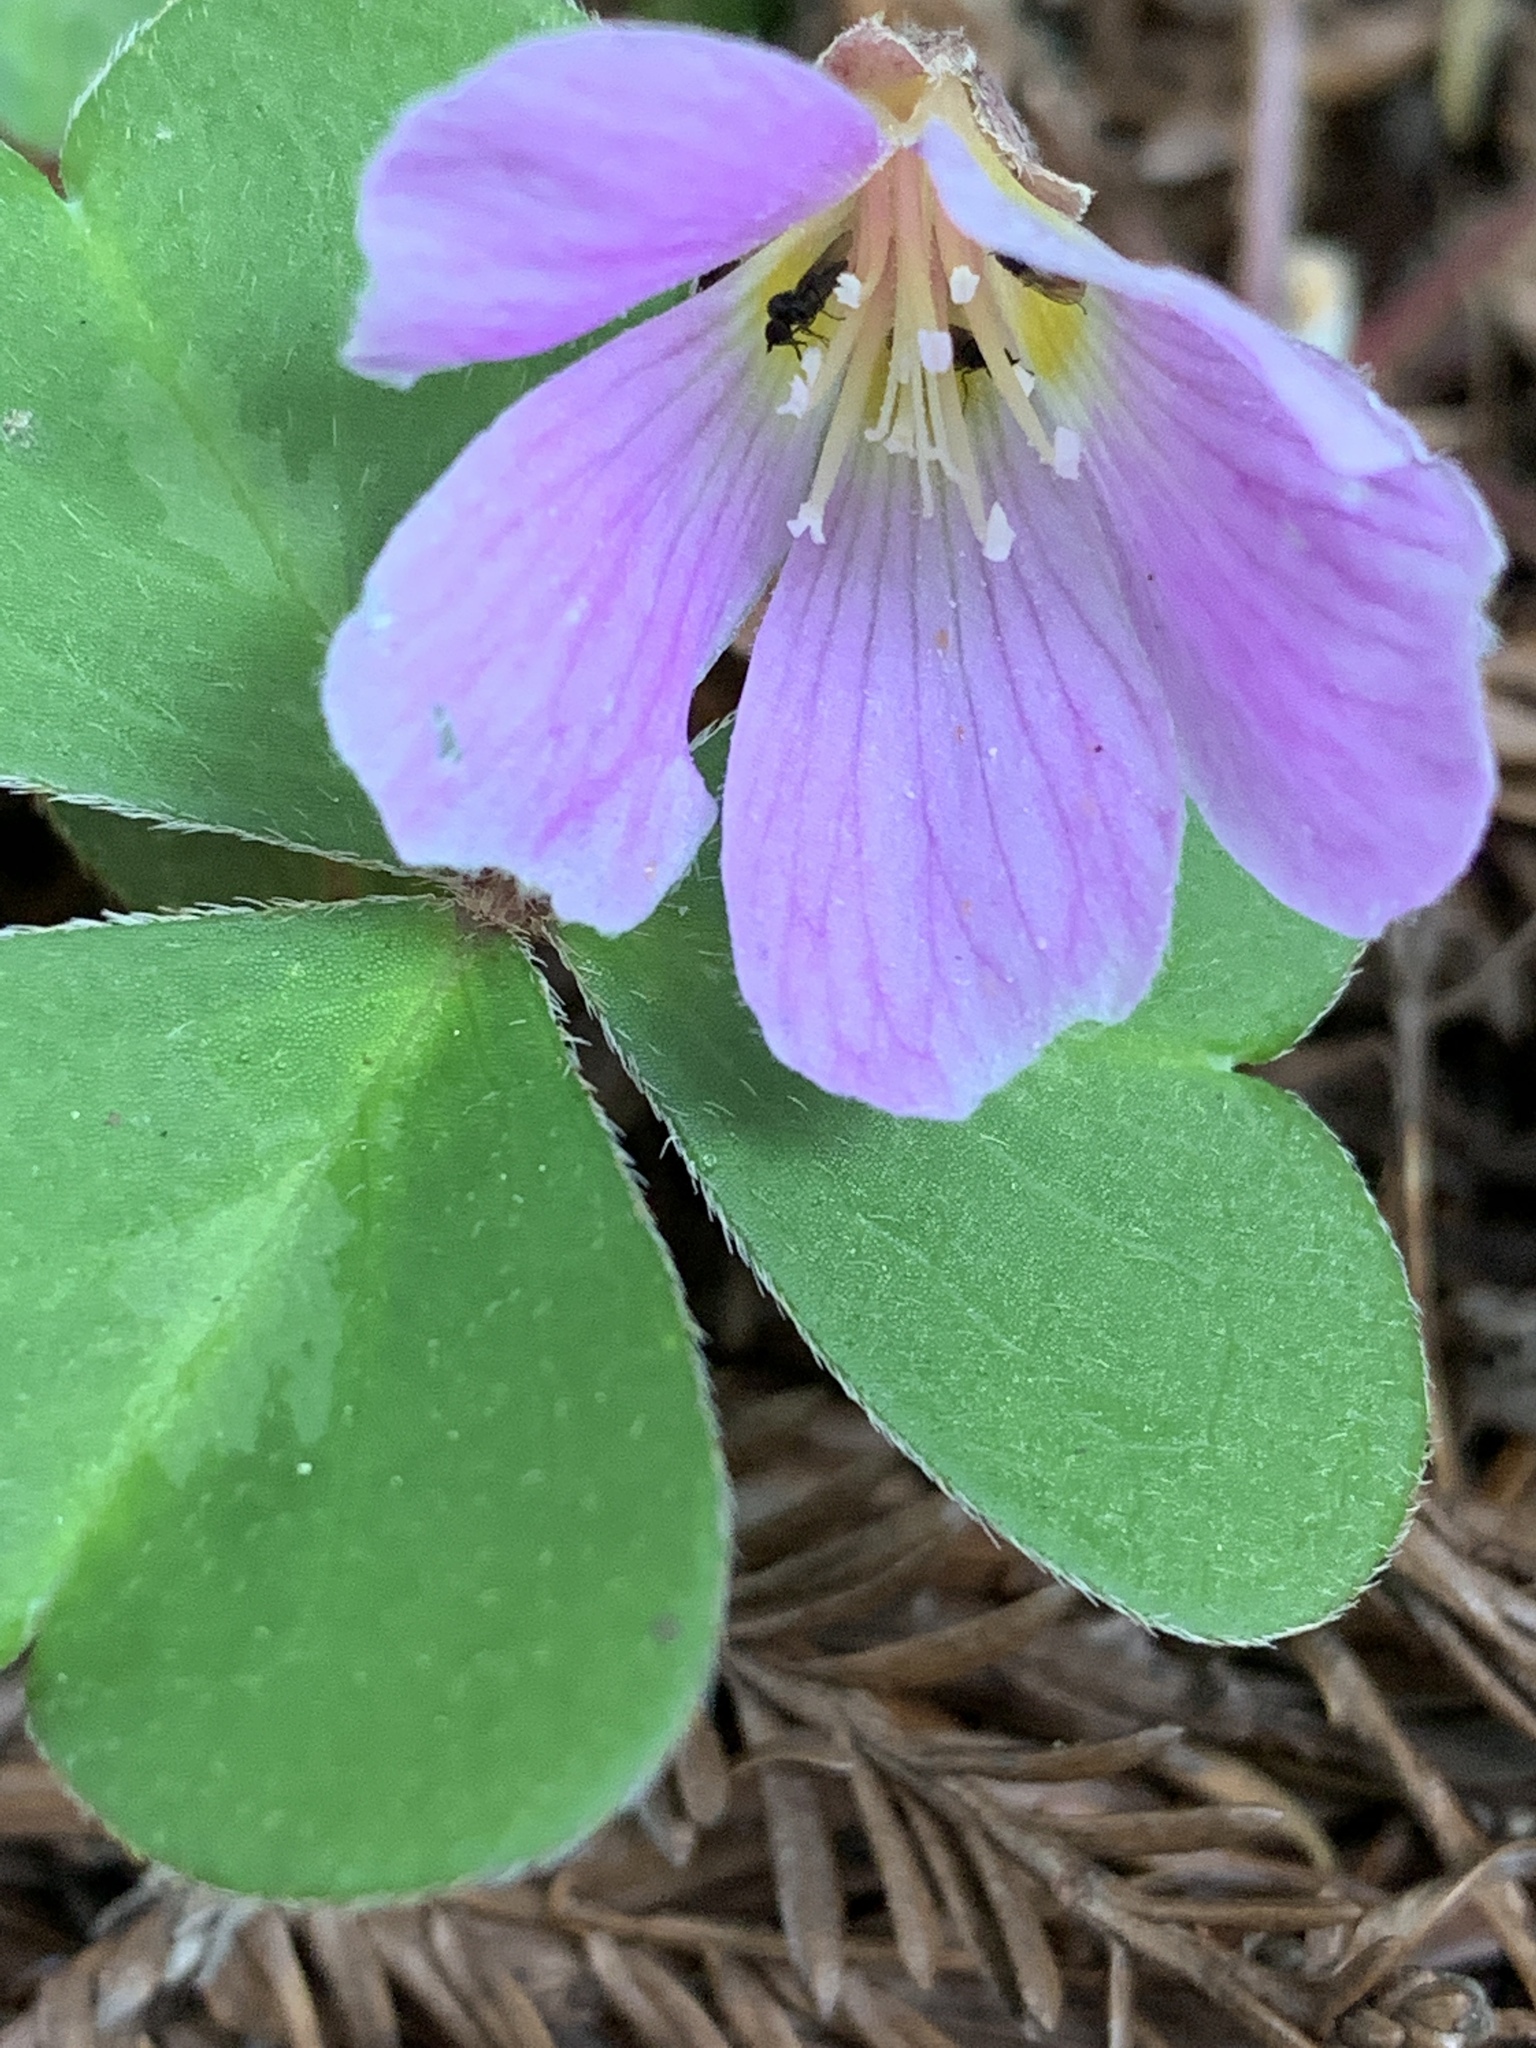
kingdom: Plantae
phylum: Tracheophyta
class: Magnoliopsida
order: Oxalidales
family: Oxalidaceae
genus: Oxalis
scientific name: Oxalis oregana
